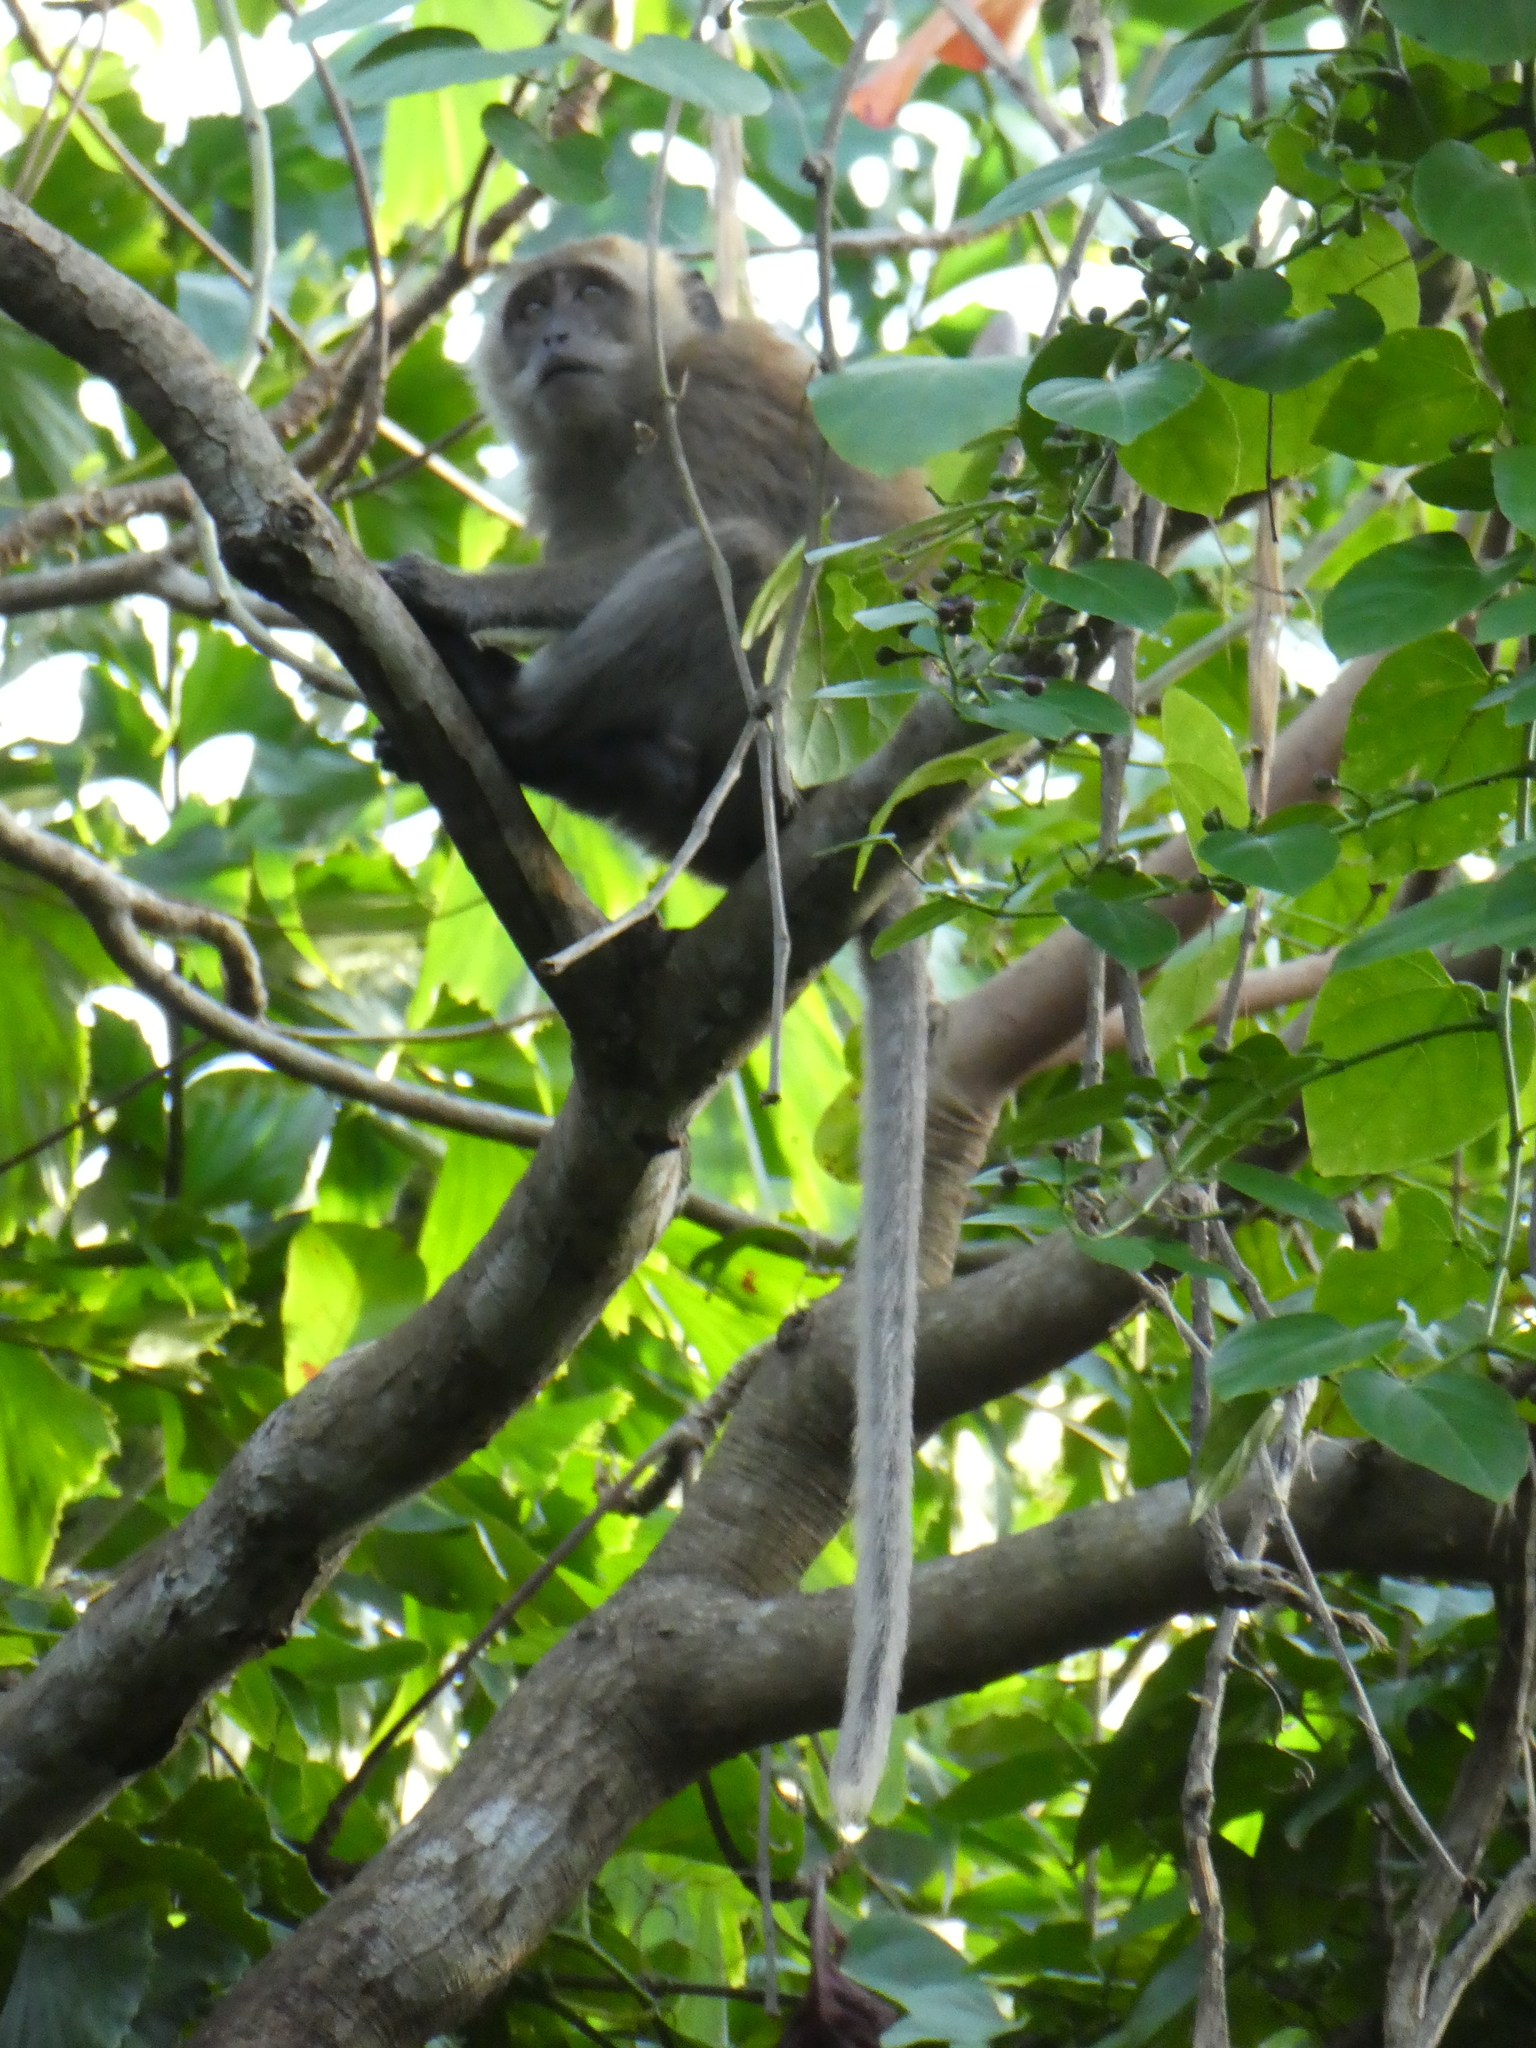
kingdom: Animalia
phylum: Chordata
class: Mammalia
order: Primates
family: Cercopithecidae
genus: Macaca
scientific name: Macaca fascicularis
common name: Crab-eating macaque
